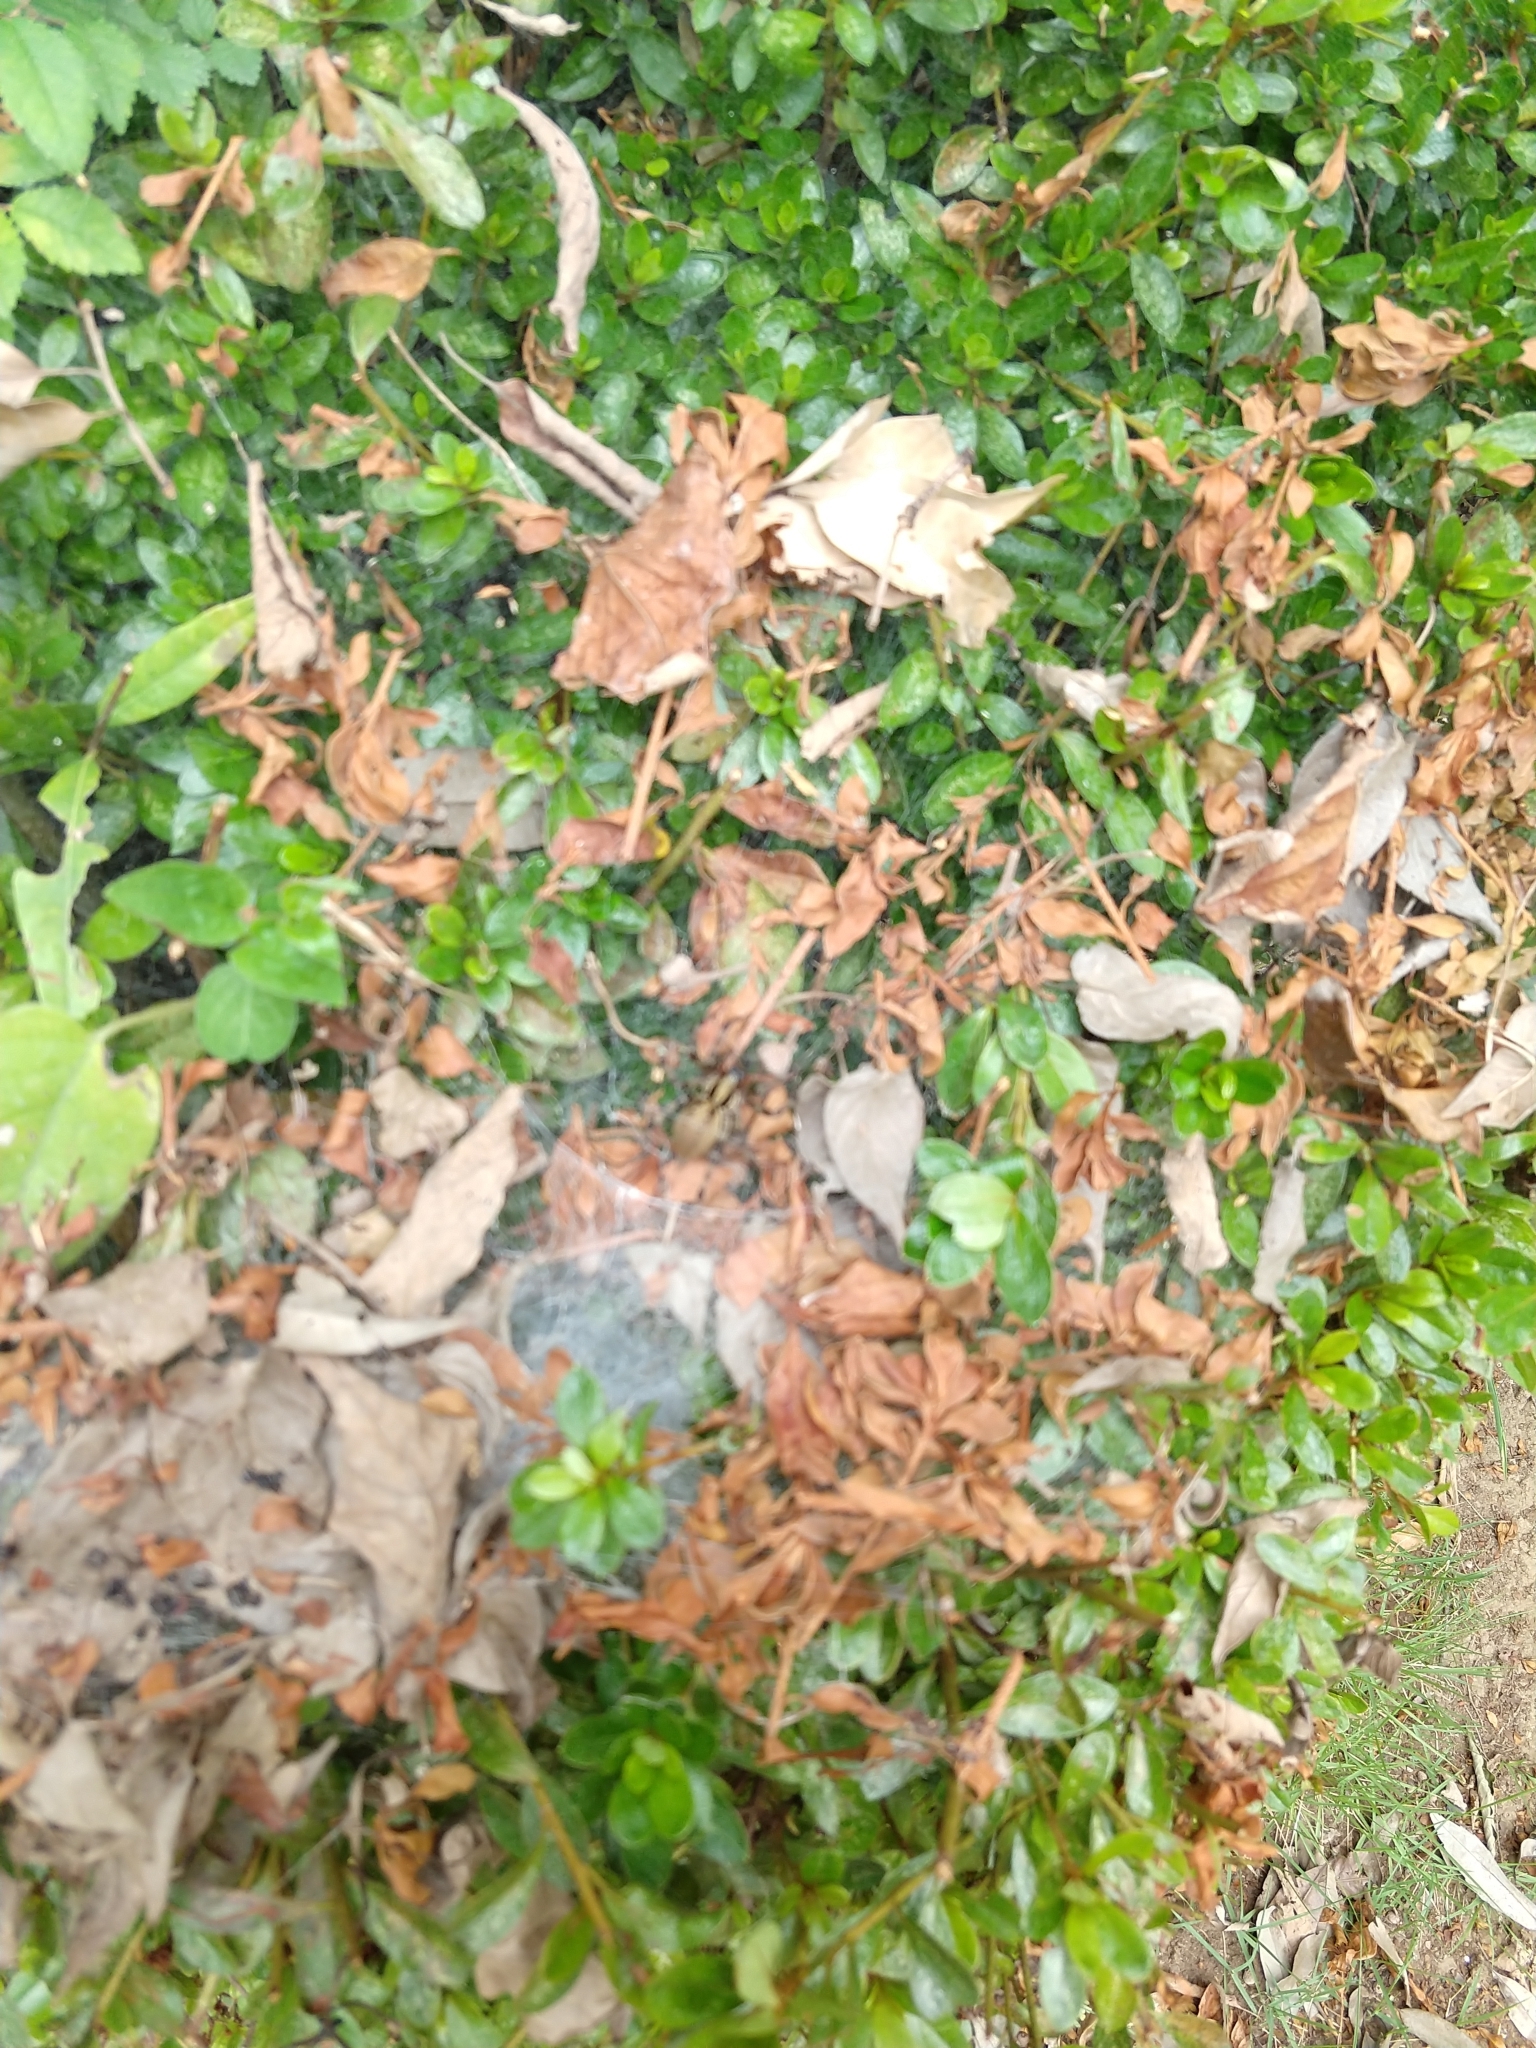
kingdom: Animalia
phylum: Arthropoda
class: Arachnida
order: Araneae
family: Agelenidae
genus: Agelena
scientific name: Agelena silvatica
